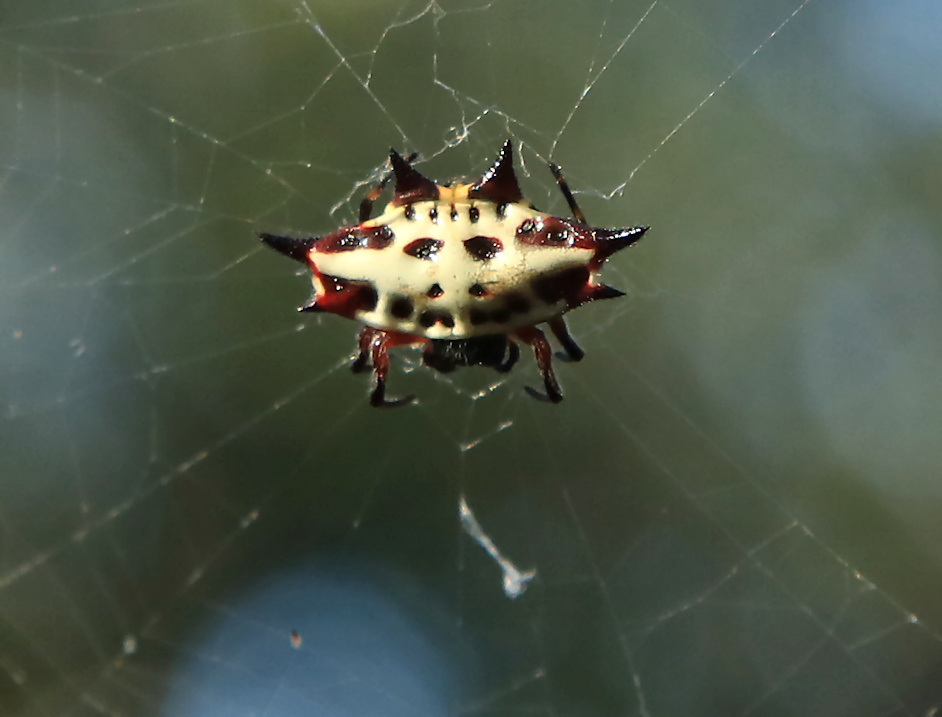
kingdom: Animalia
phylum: Arthropoda
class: Arachnida
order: Araneae
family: Araneidae
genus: Gasteracantha
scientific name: Gasteracantha sanguinolenta
